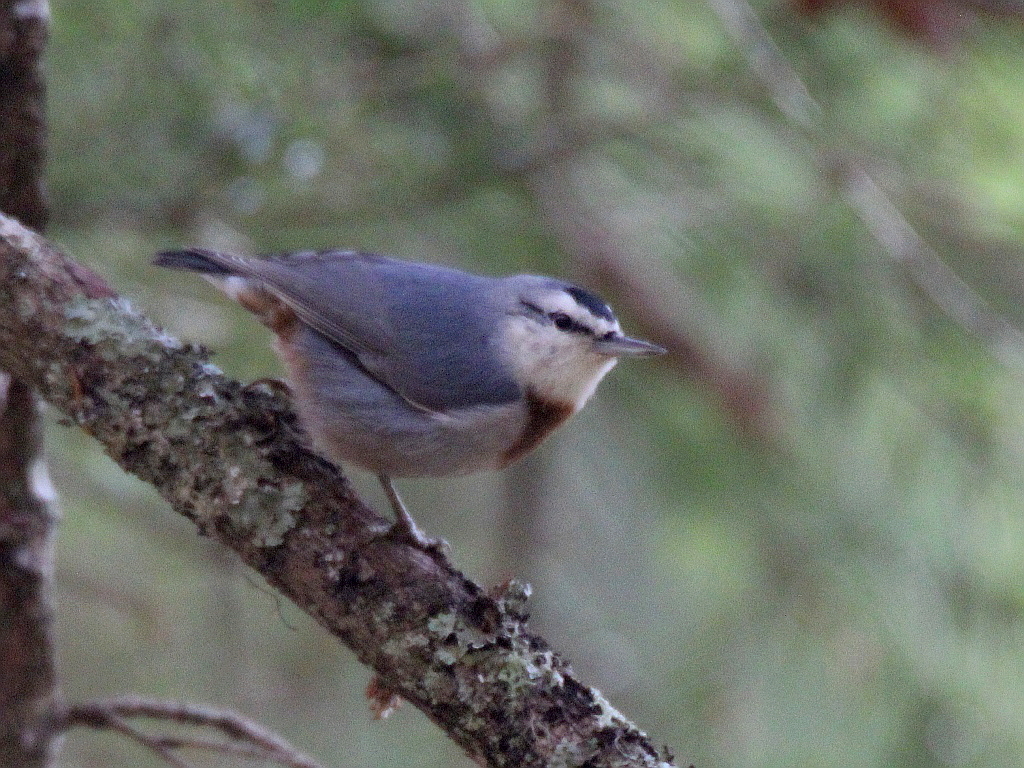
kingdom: Animalia
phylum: Chordata
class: Aves
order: Passeriformes
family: Sittidae
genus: Sitta
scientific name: Sitta krueperi
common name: Krüper's nuthatch
